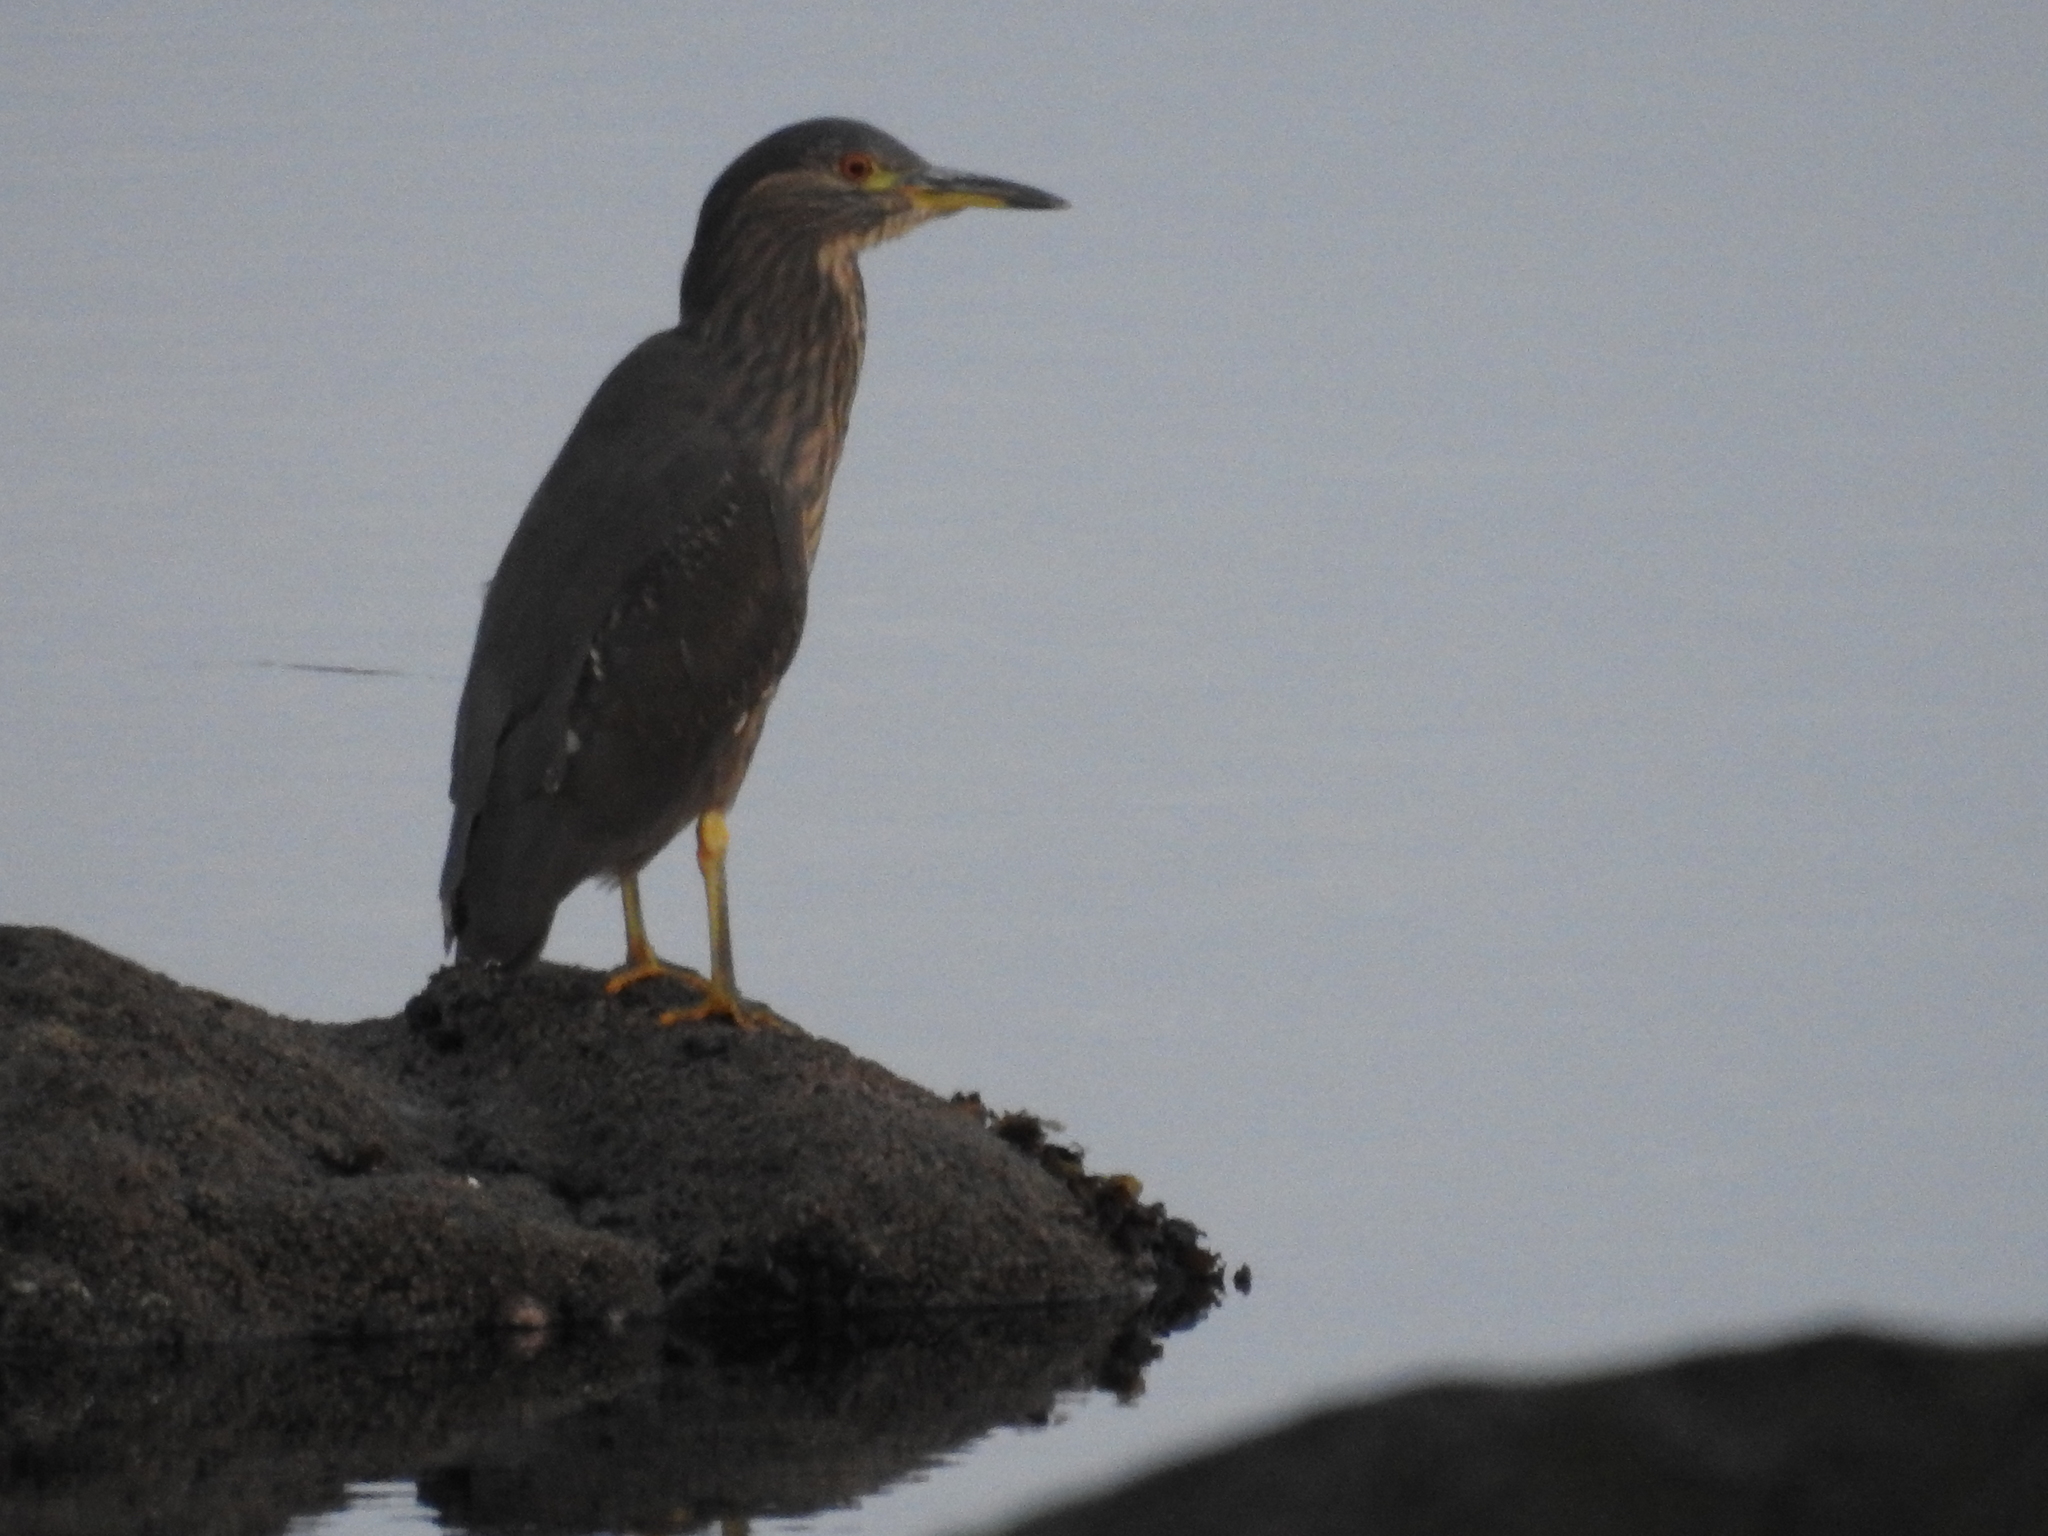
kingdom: Animalia
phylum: Chordata
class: Aves
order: Pelecaniformes
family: Ardeidae
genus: Nycticorax
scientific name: Nycticorax nycticorax
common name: Black-crowned night heron
